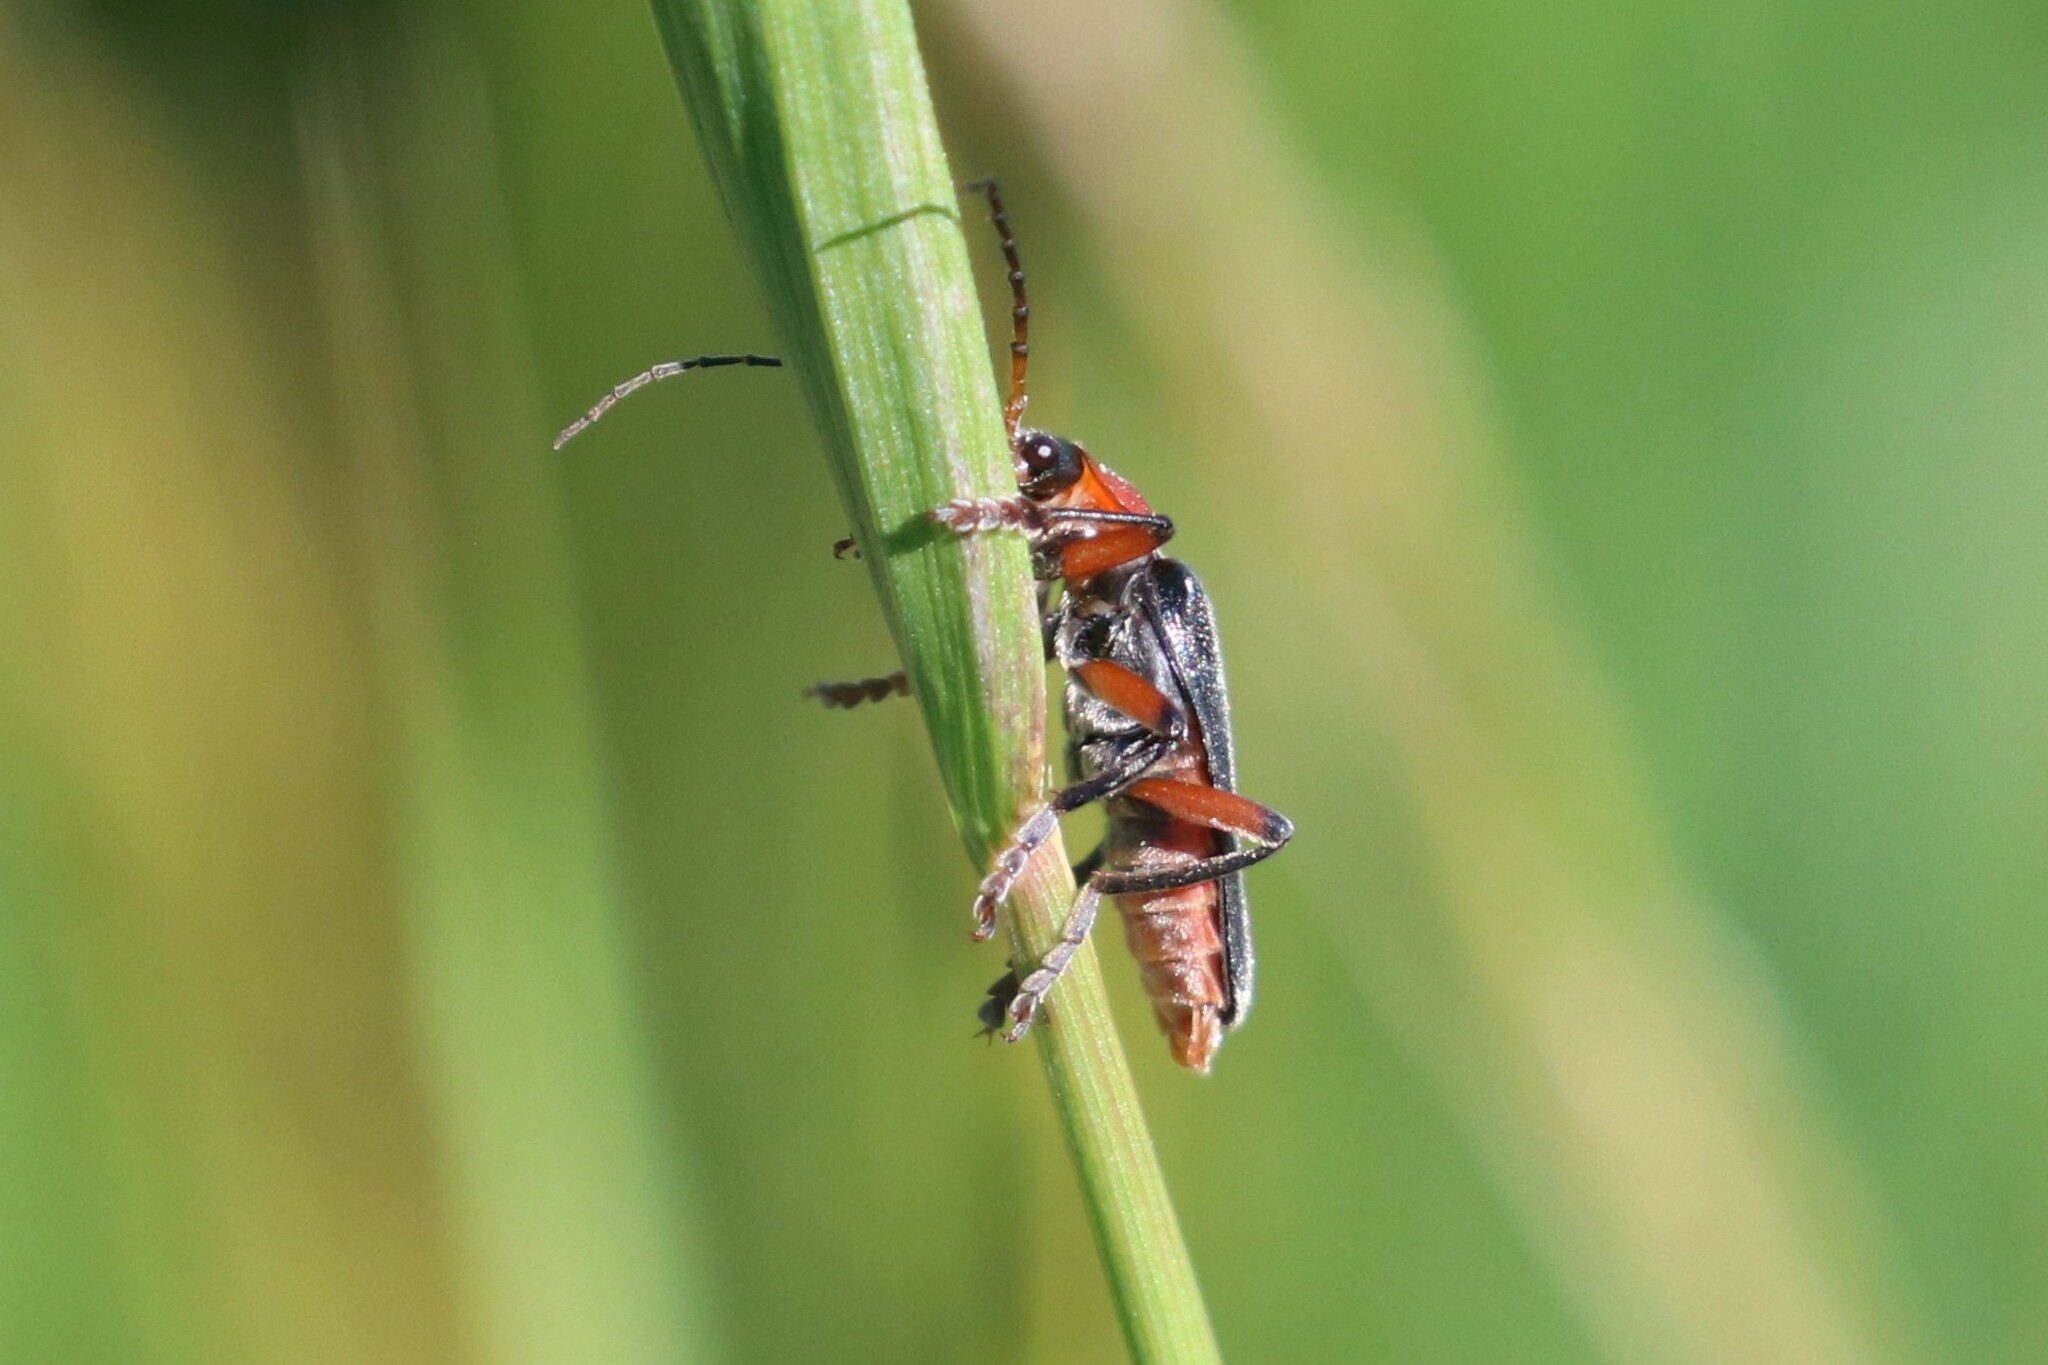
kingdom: Animalia
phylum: Arthropoda
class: Insecta
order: Coleoptera
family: Cantharidae
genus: Cantharis
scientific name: Cantharis rustica
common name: Soldier beetle
